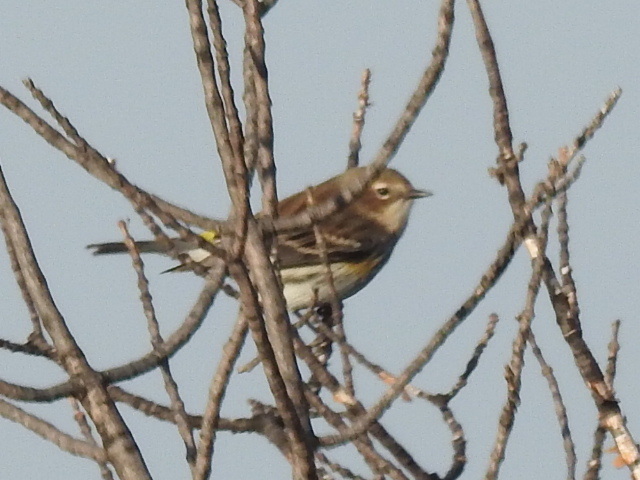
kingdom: Animalia
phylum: Chordata
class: Aves
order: Passeriformes
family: Parulidae
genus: Setophaga
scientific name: Setophaga coronata
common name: Myrtle warbler
